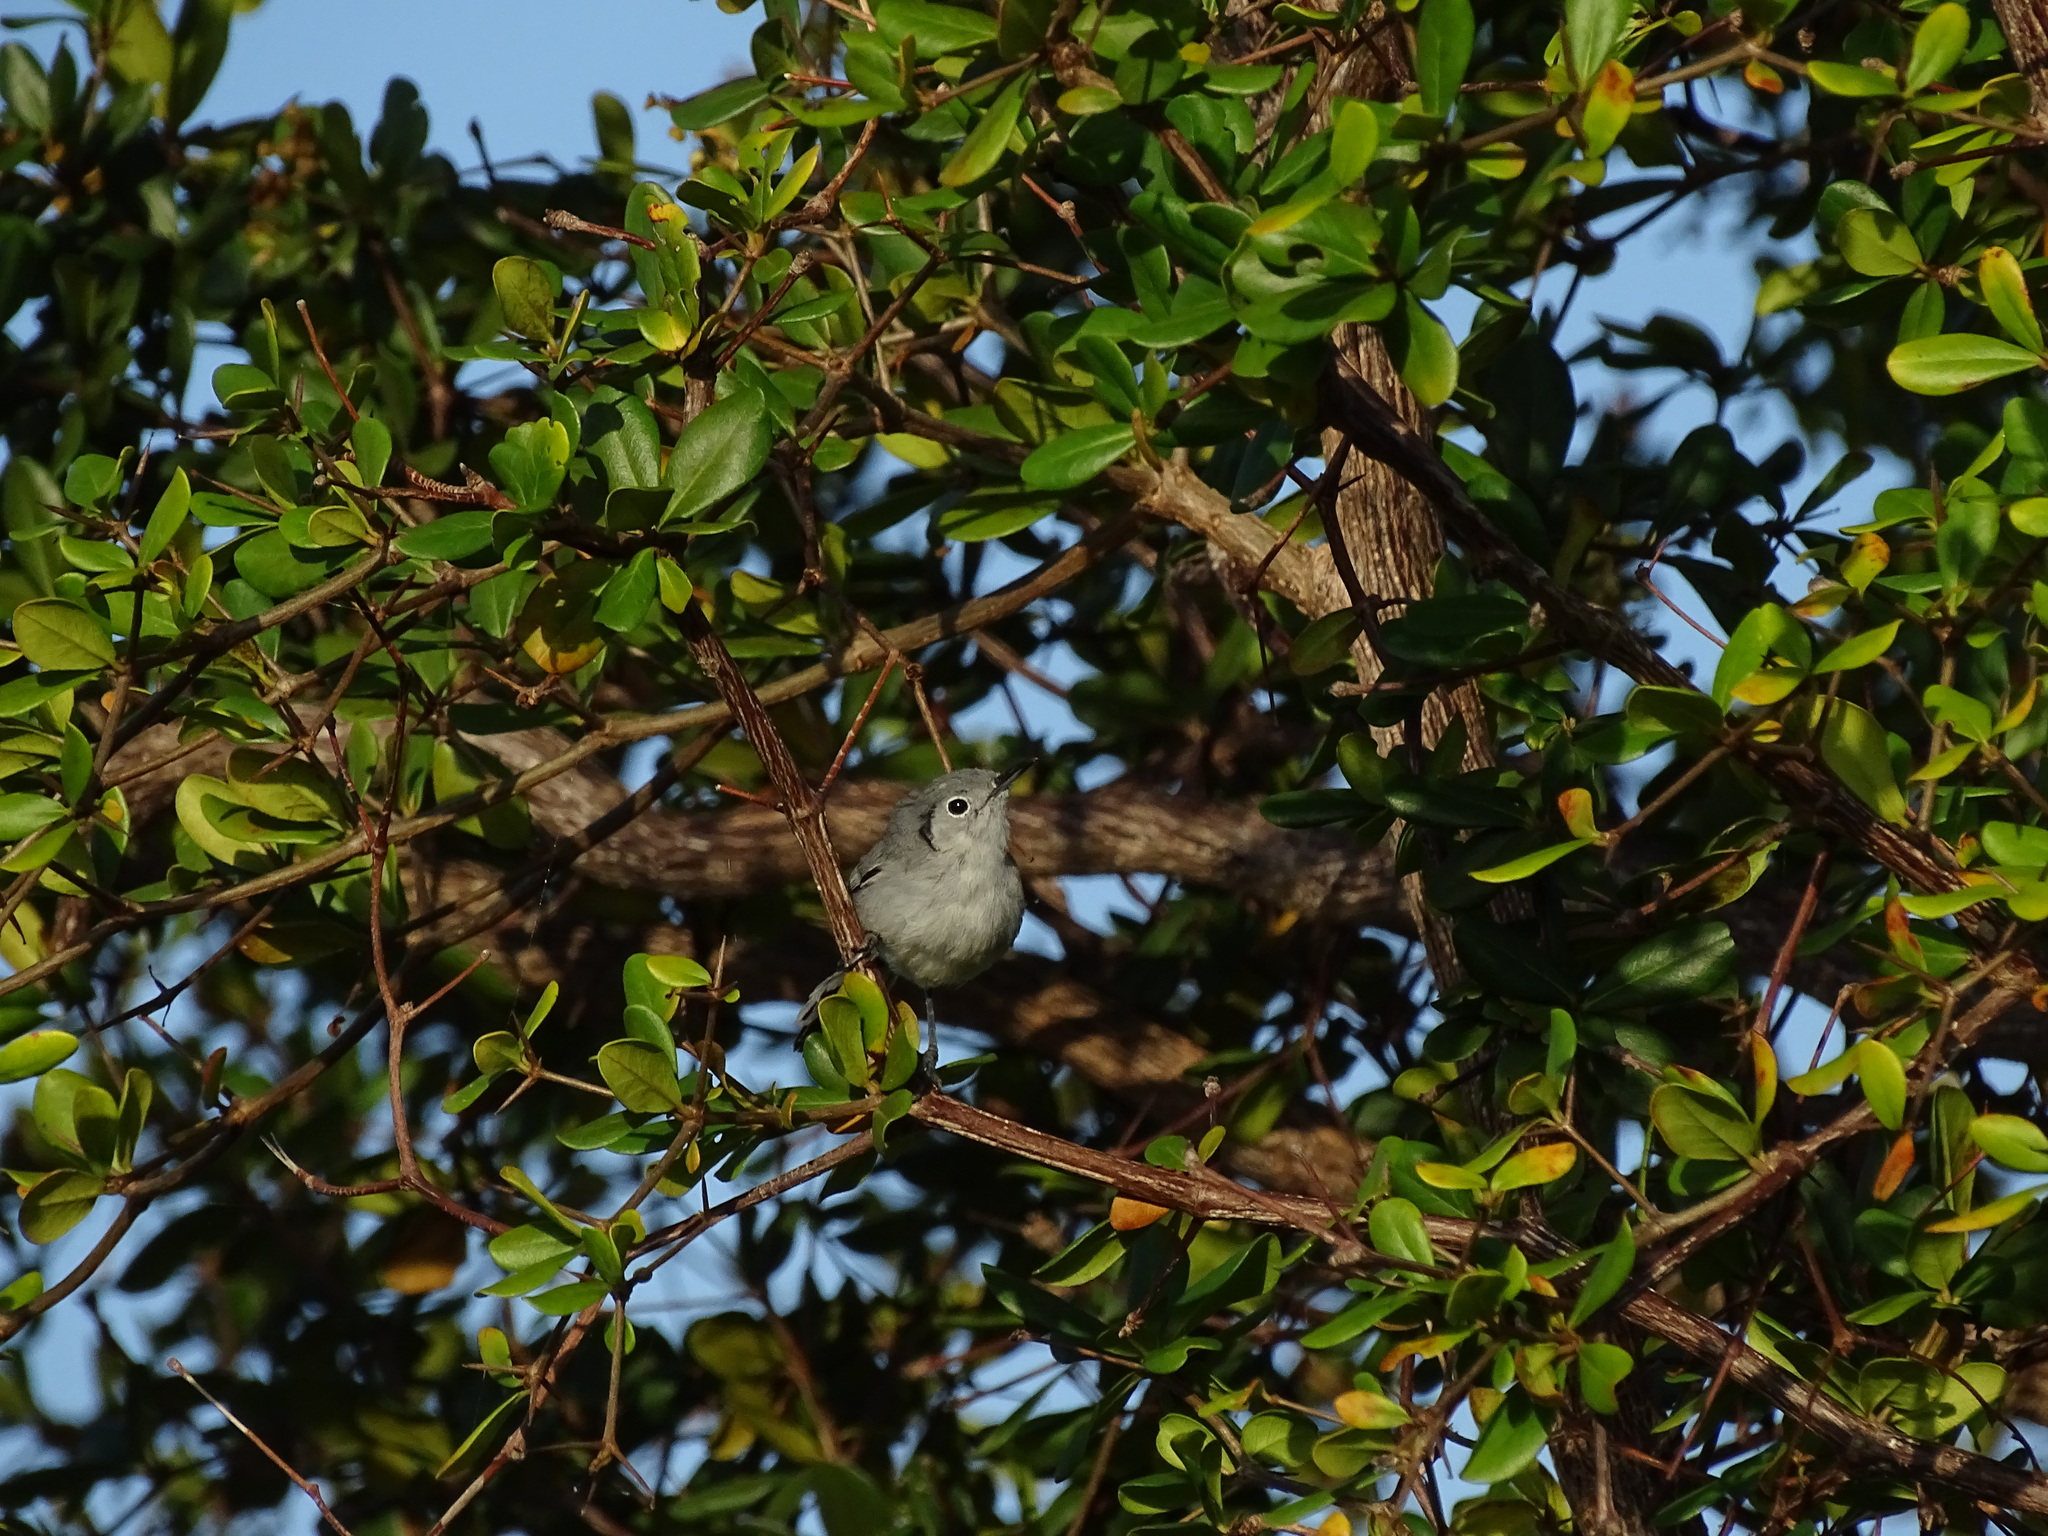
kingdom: Animalia
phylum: Chordata
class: Aves
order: Passeriformes
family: Polioptilidae
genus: Polioptila
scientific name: Polioptila lembeyei
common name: Cuban gnatcatcher
